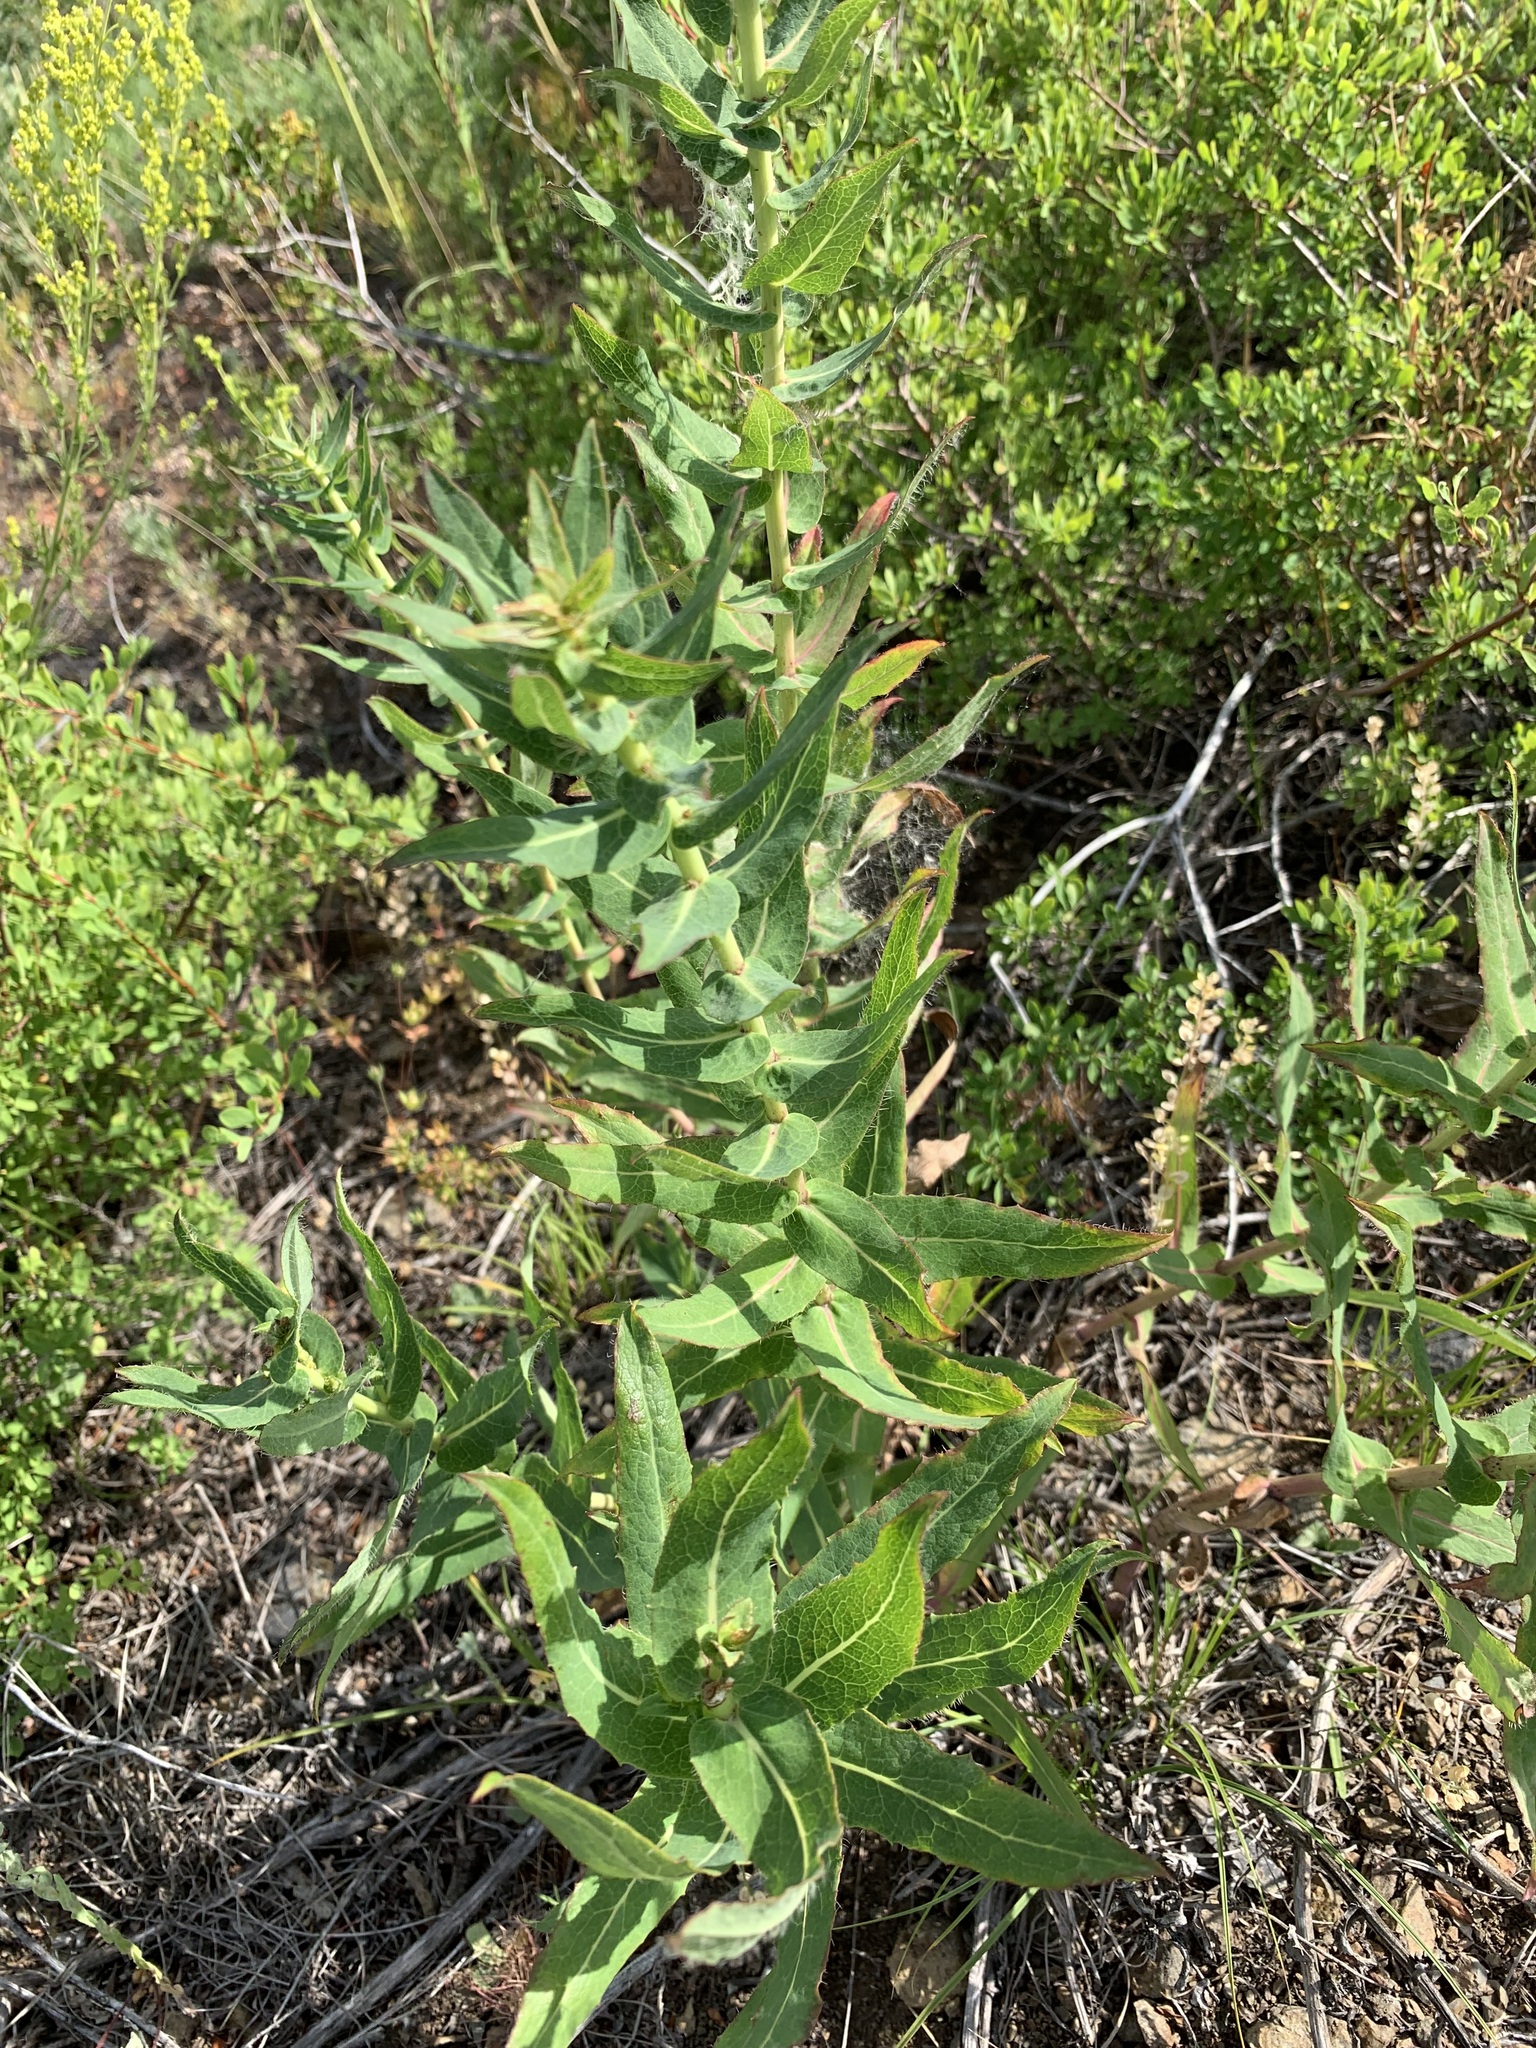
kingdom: Plantae
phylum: Tracheophyta
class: Magnoliopsida
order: Asterales
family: Asteraceae
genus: Hieracium
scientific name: Hieracium robustum
